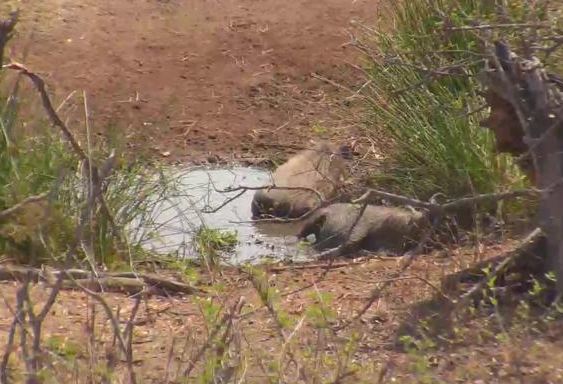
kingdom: Animalia
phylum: Chordata
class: Mammalia
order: Artiodactyla
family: Suidae
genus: Phacochoerus
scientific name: Phacochoerus africanus
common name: Common warthog
